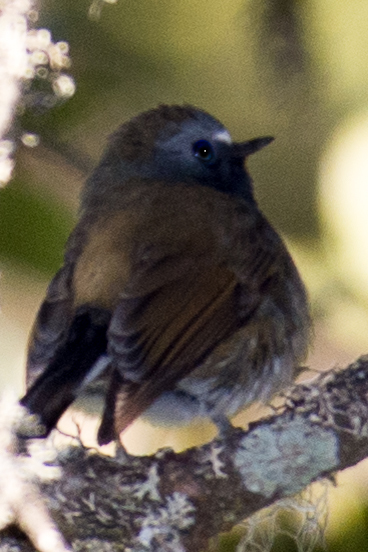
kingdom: Animalia
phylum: Chordata
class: Aves
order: Passeriformes
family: Muscicapidae
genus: Ficedula
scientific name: Ficedula strophiata
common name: Rufous-gorgeted flycatcher
